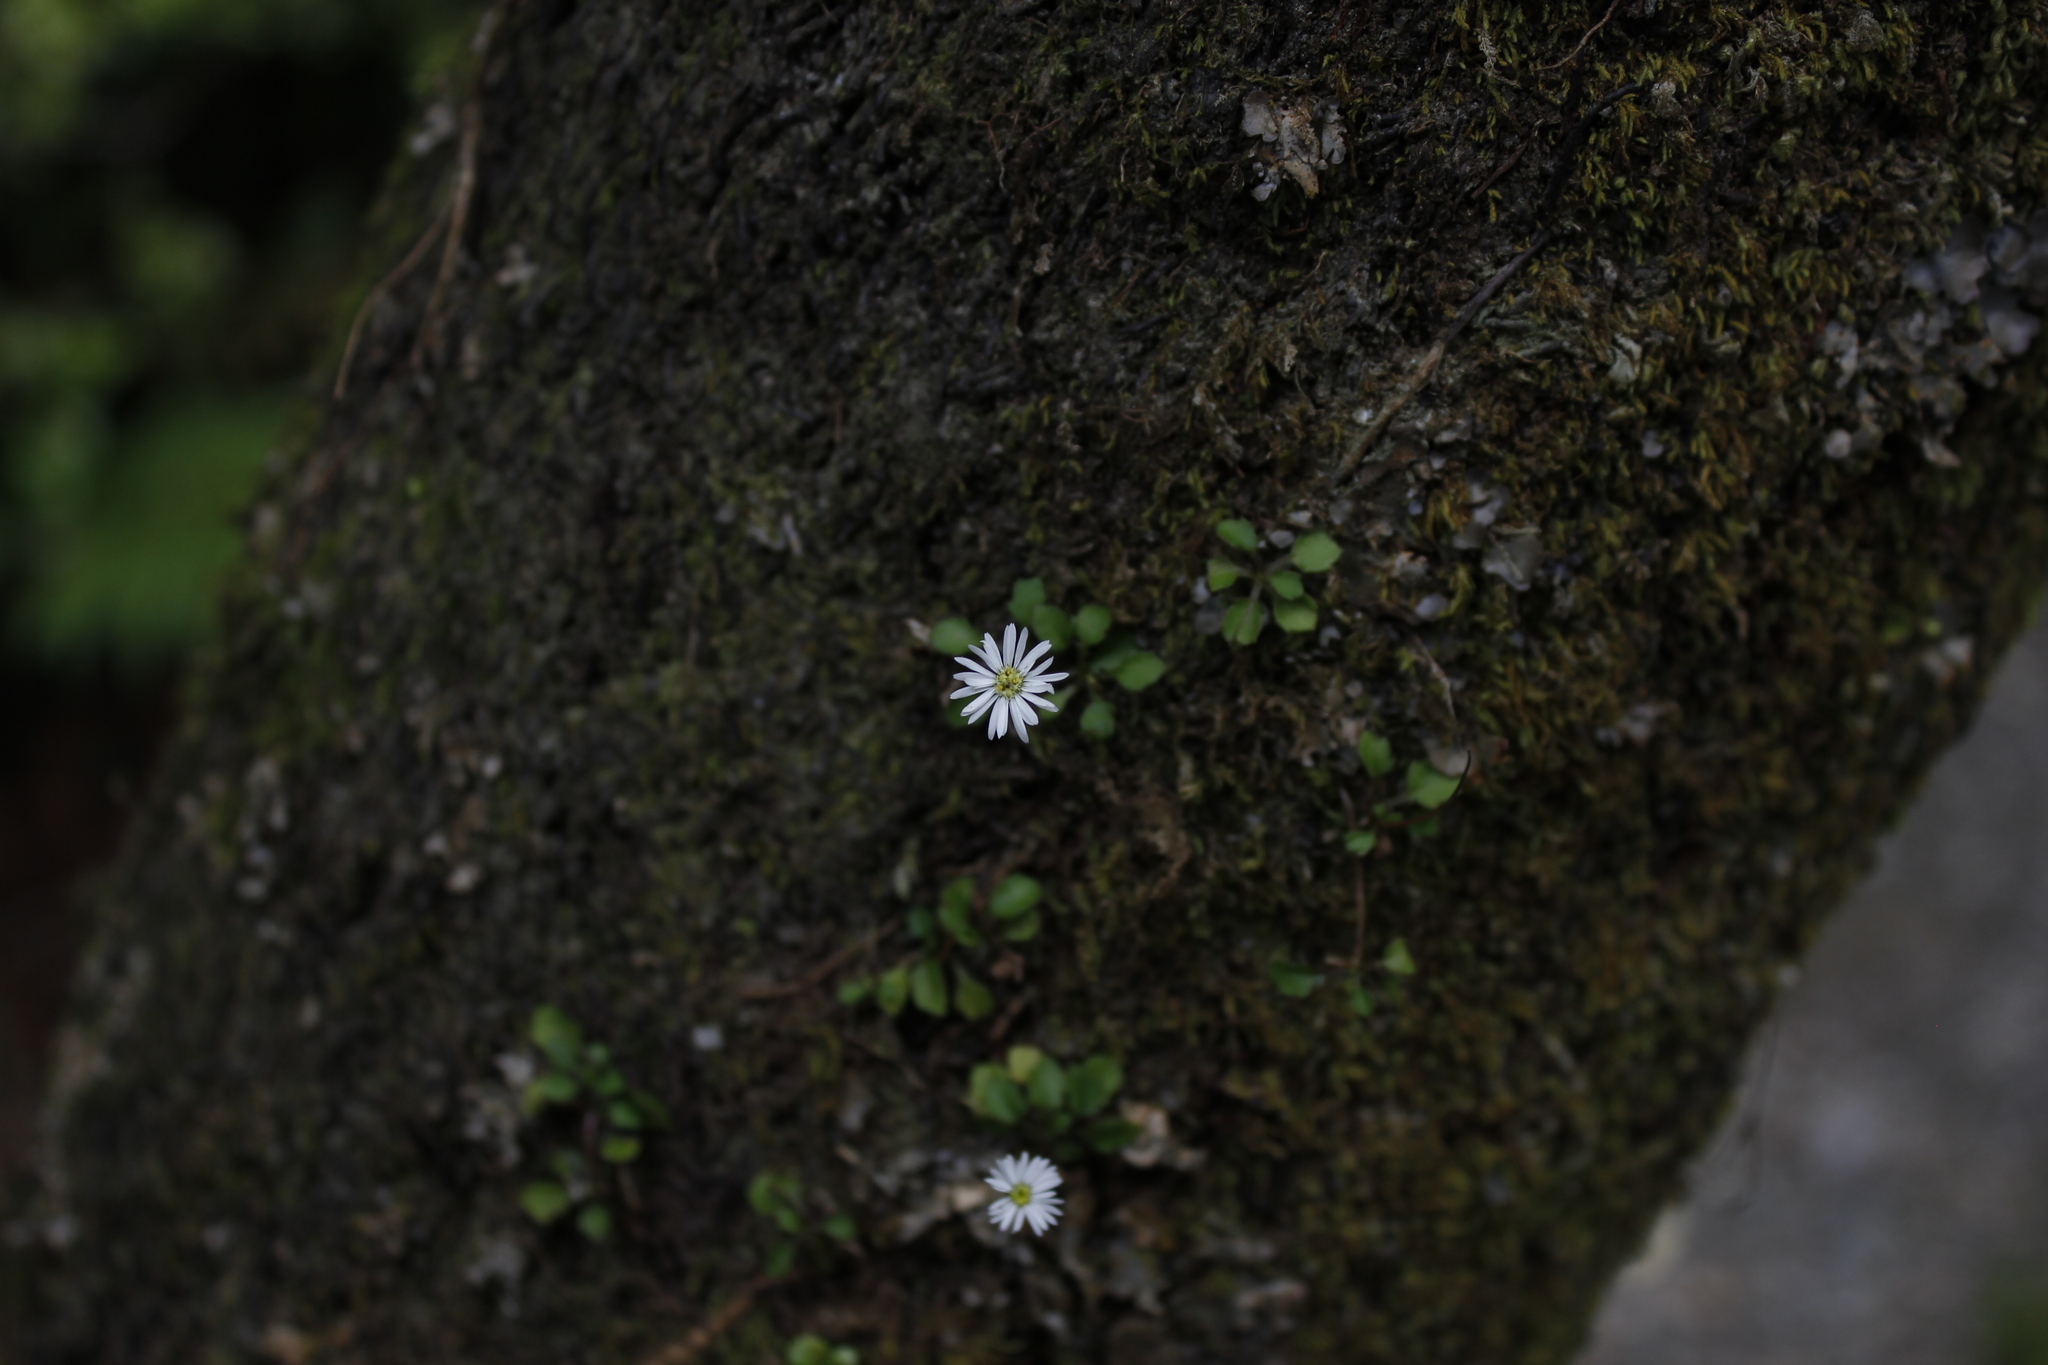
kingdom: Plantae
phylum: Tracheophyta
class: Magnoliopsida
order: Asterales
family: Asteraceae
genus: Lagenophora
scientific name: Lagenophora pumila
